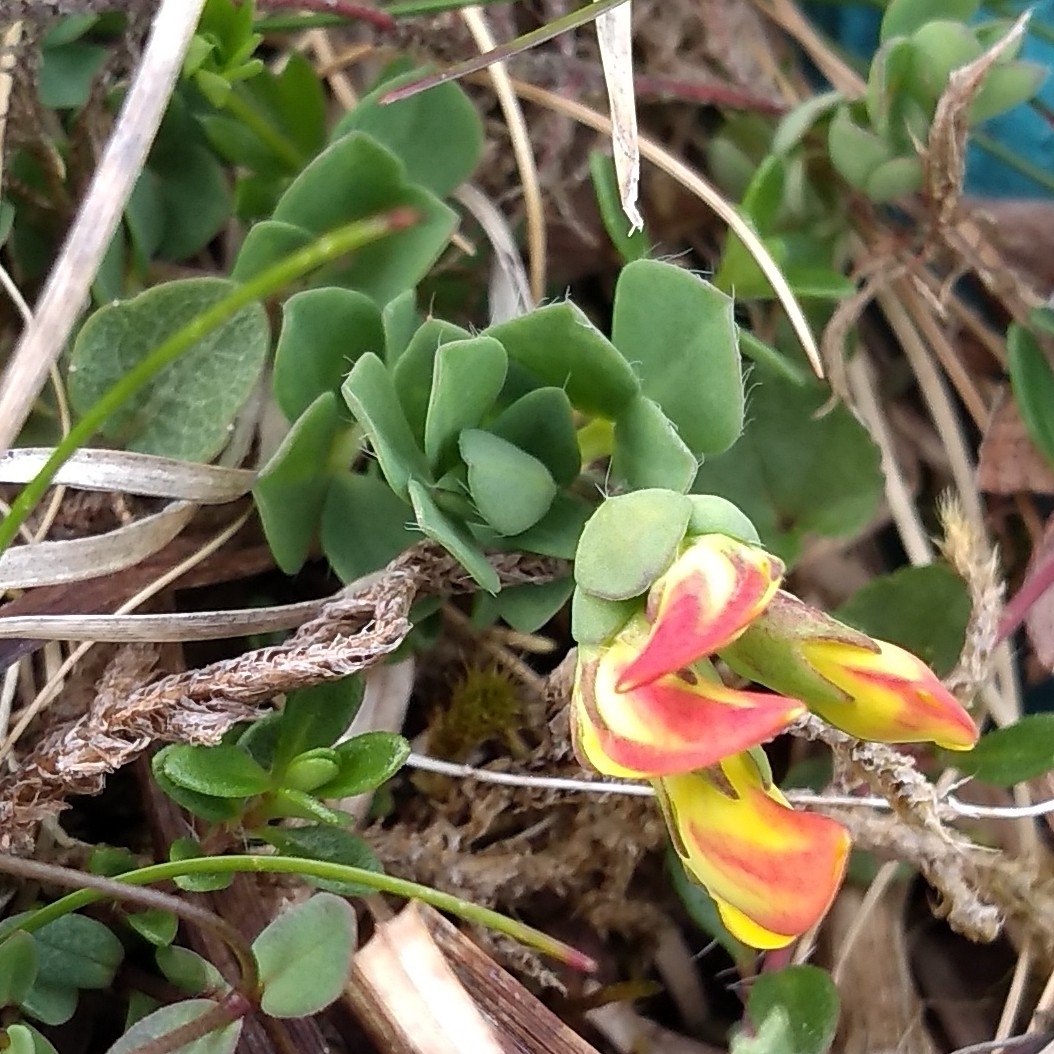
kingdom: Plantae
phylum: Tracheophyta
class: Magnoliopsida
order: Fabales
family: Fabaceae
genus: Lotus
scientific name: Lotus corniculatus
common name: Common bird's-foot-trefoil
